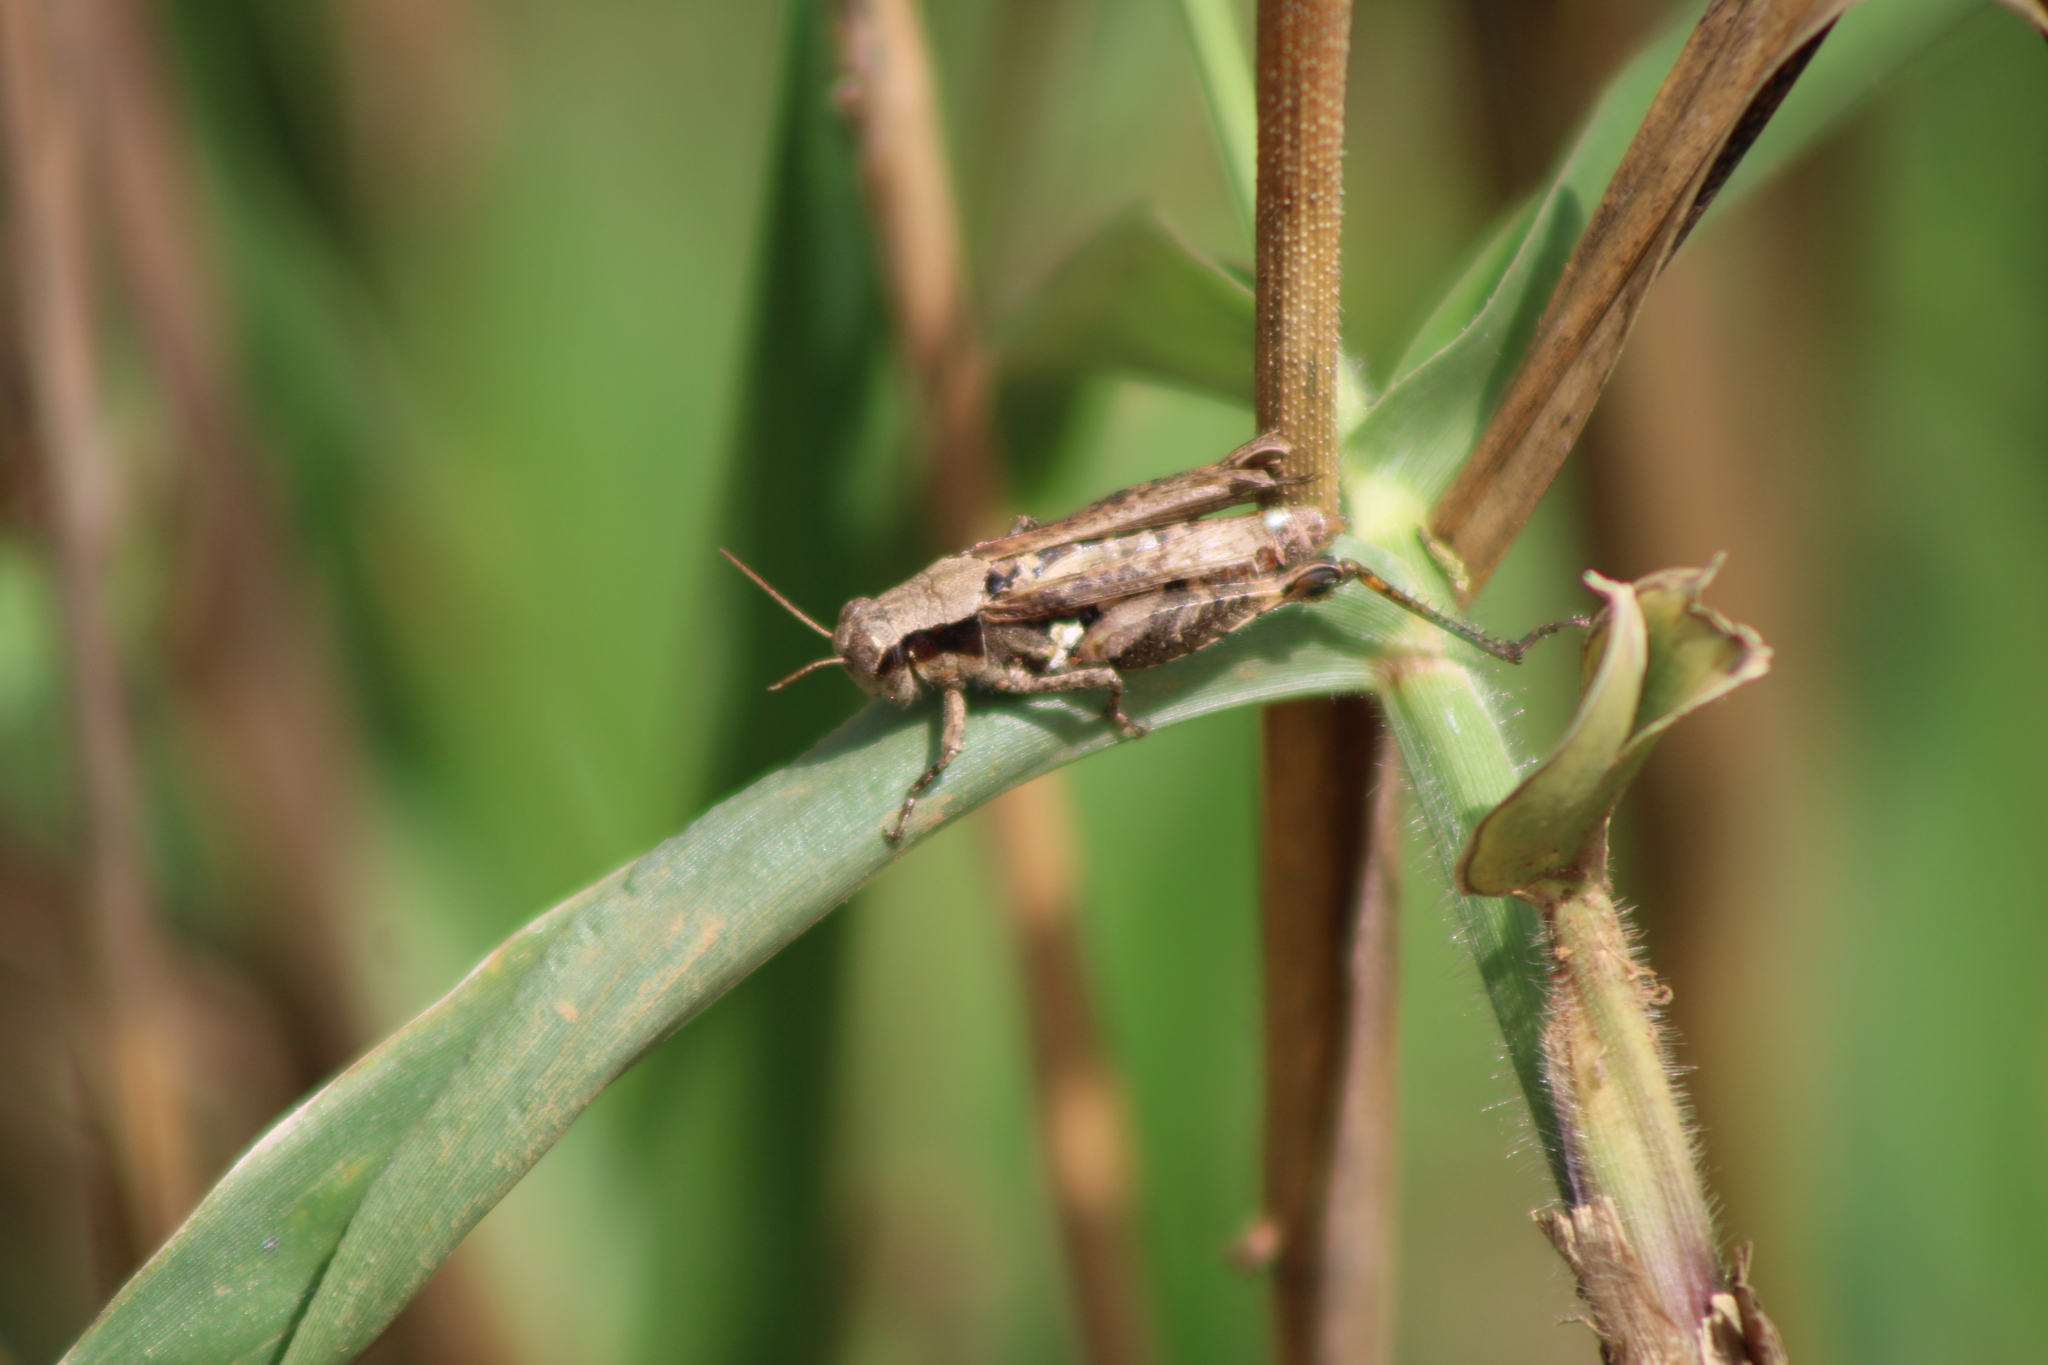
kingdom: Animalia
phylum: Arthropoda
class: Insecta
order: Orthoptera
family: Acrididae
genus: Aidemona
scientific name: Aidemona azteca
